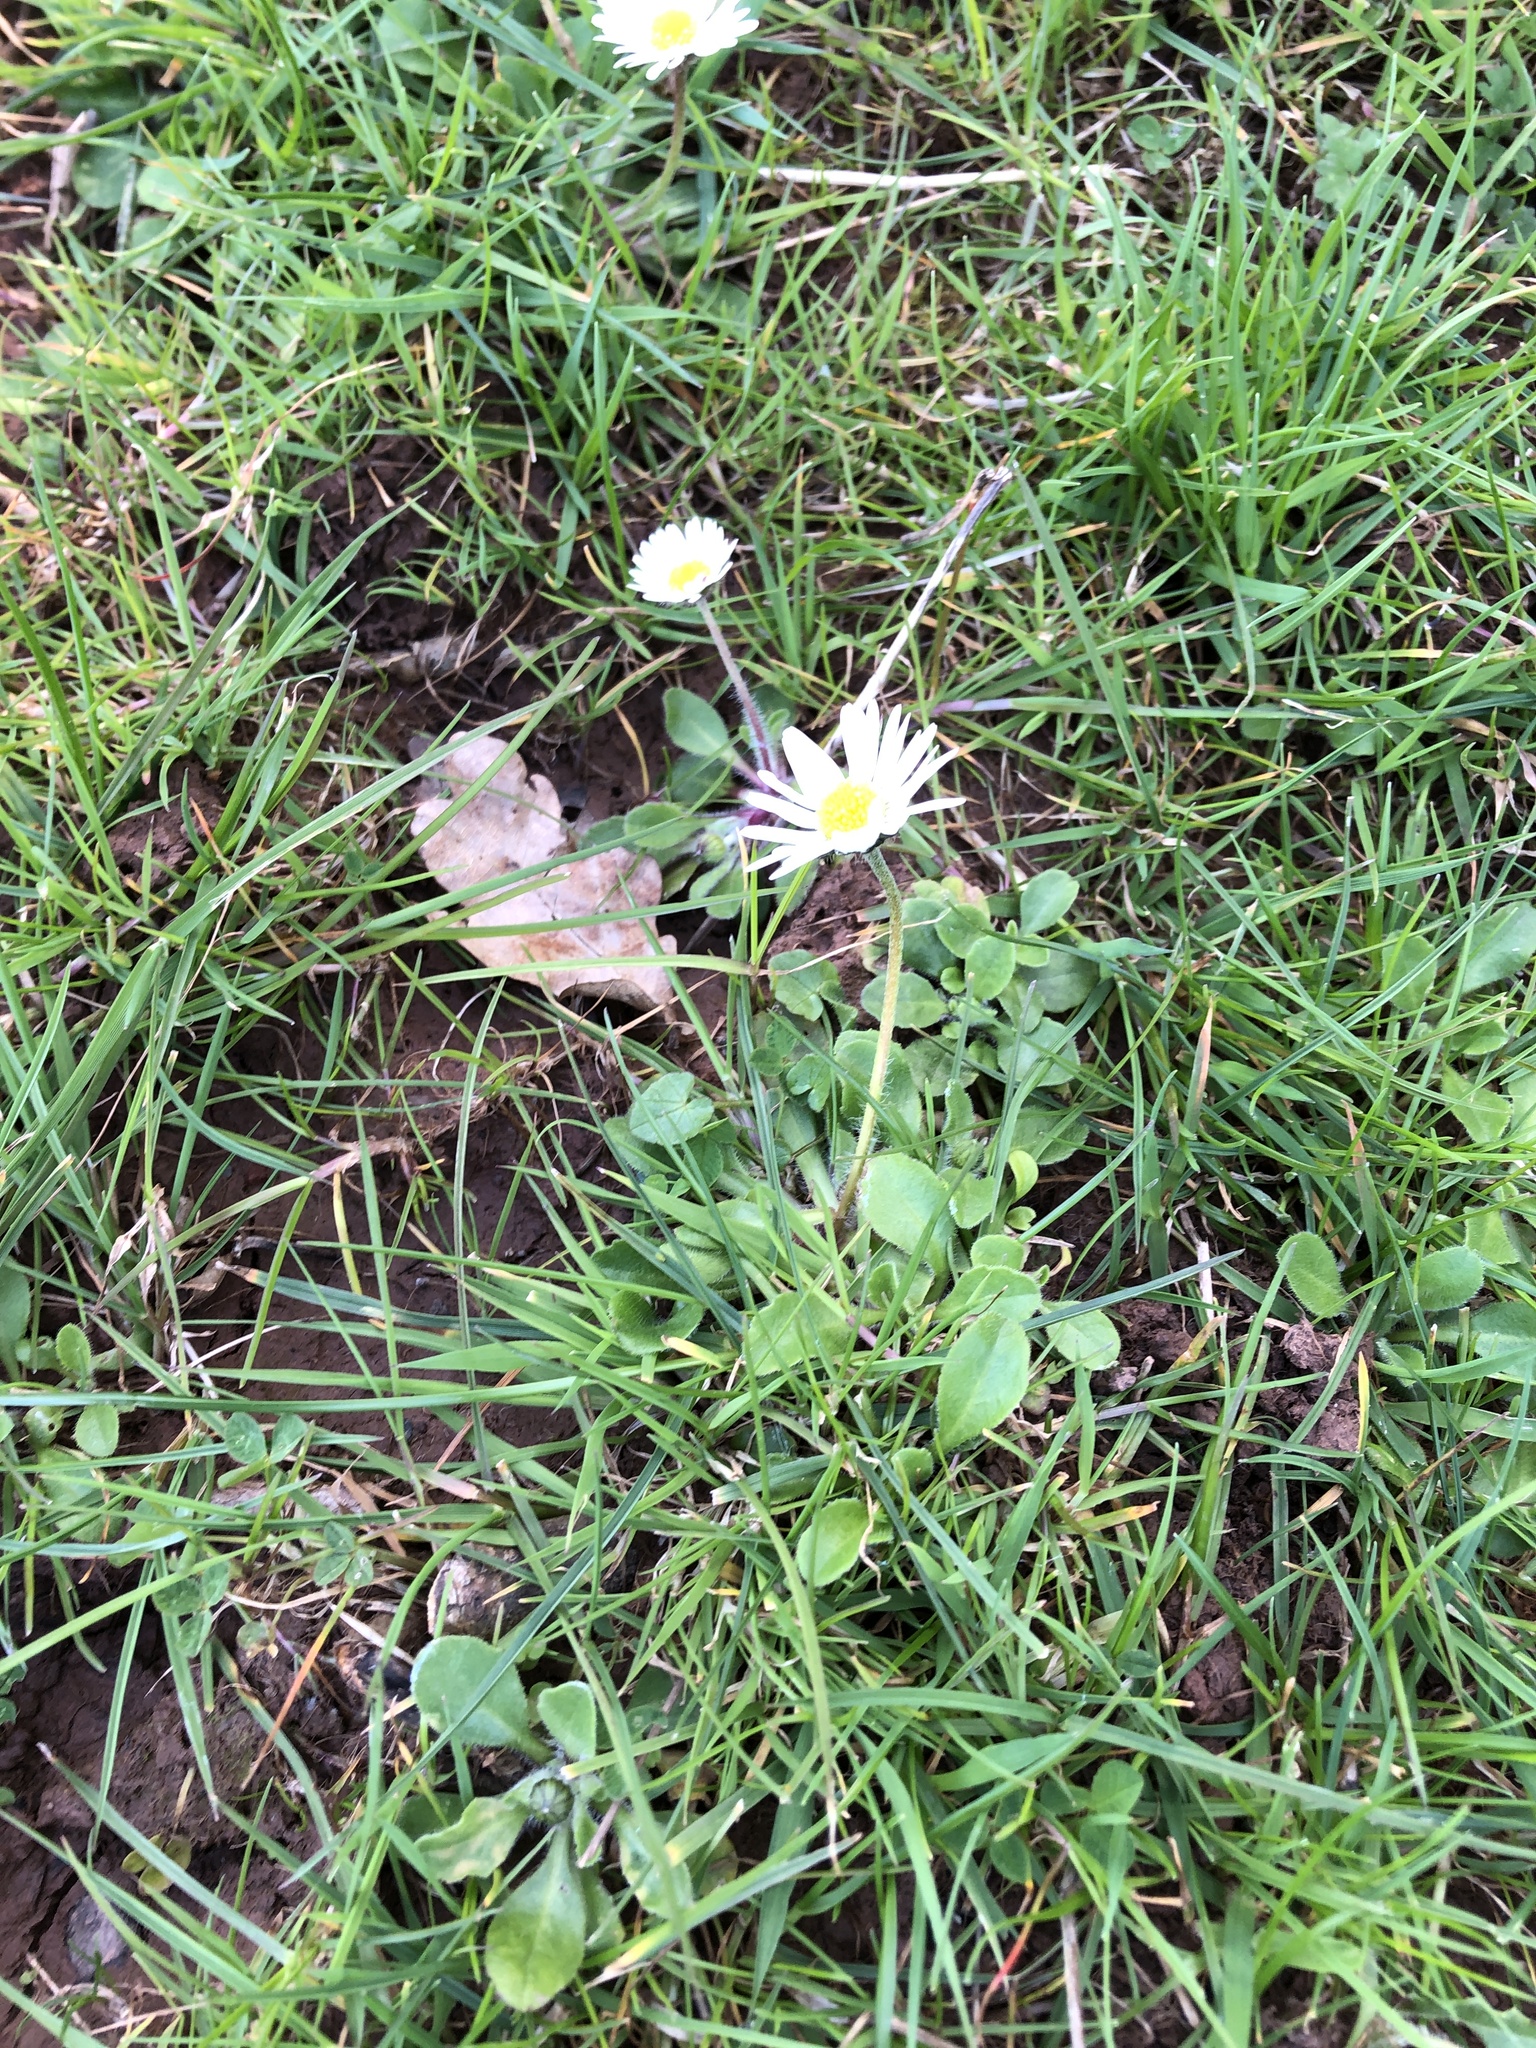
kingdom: Plantae
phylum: Tracheophyta
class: Magnoliopsida
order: Asterales
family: Asteraceae
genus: Bellis
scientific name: Bellis perennis
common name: Lawndaisy
